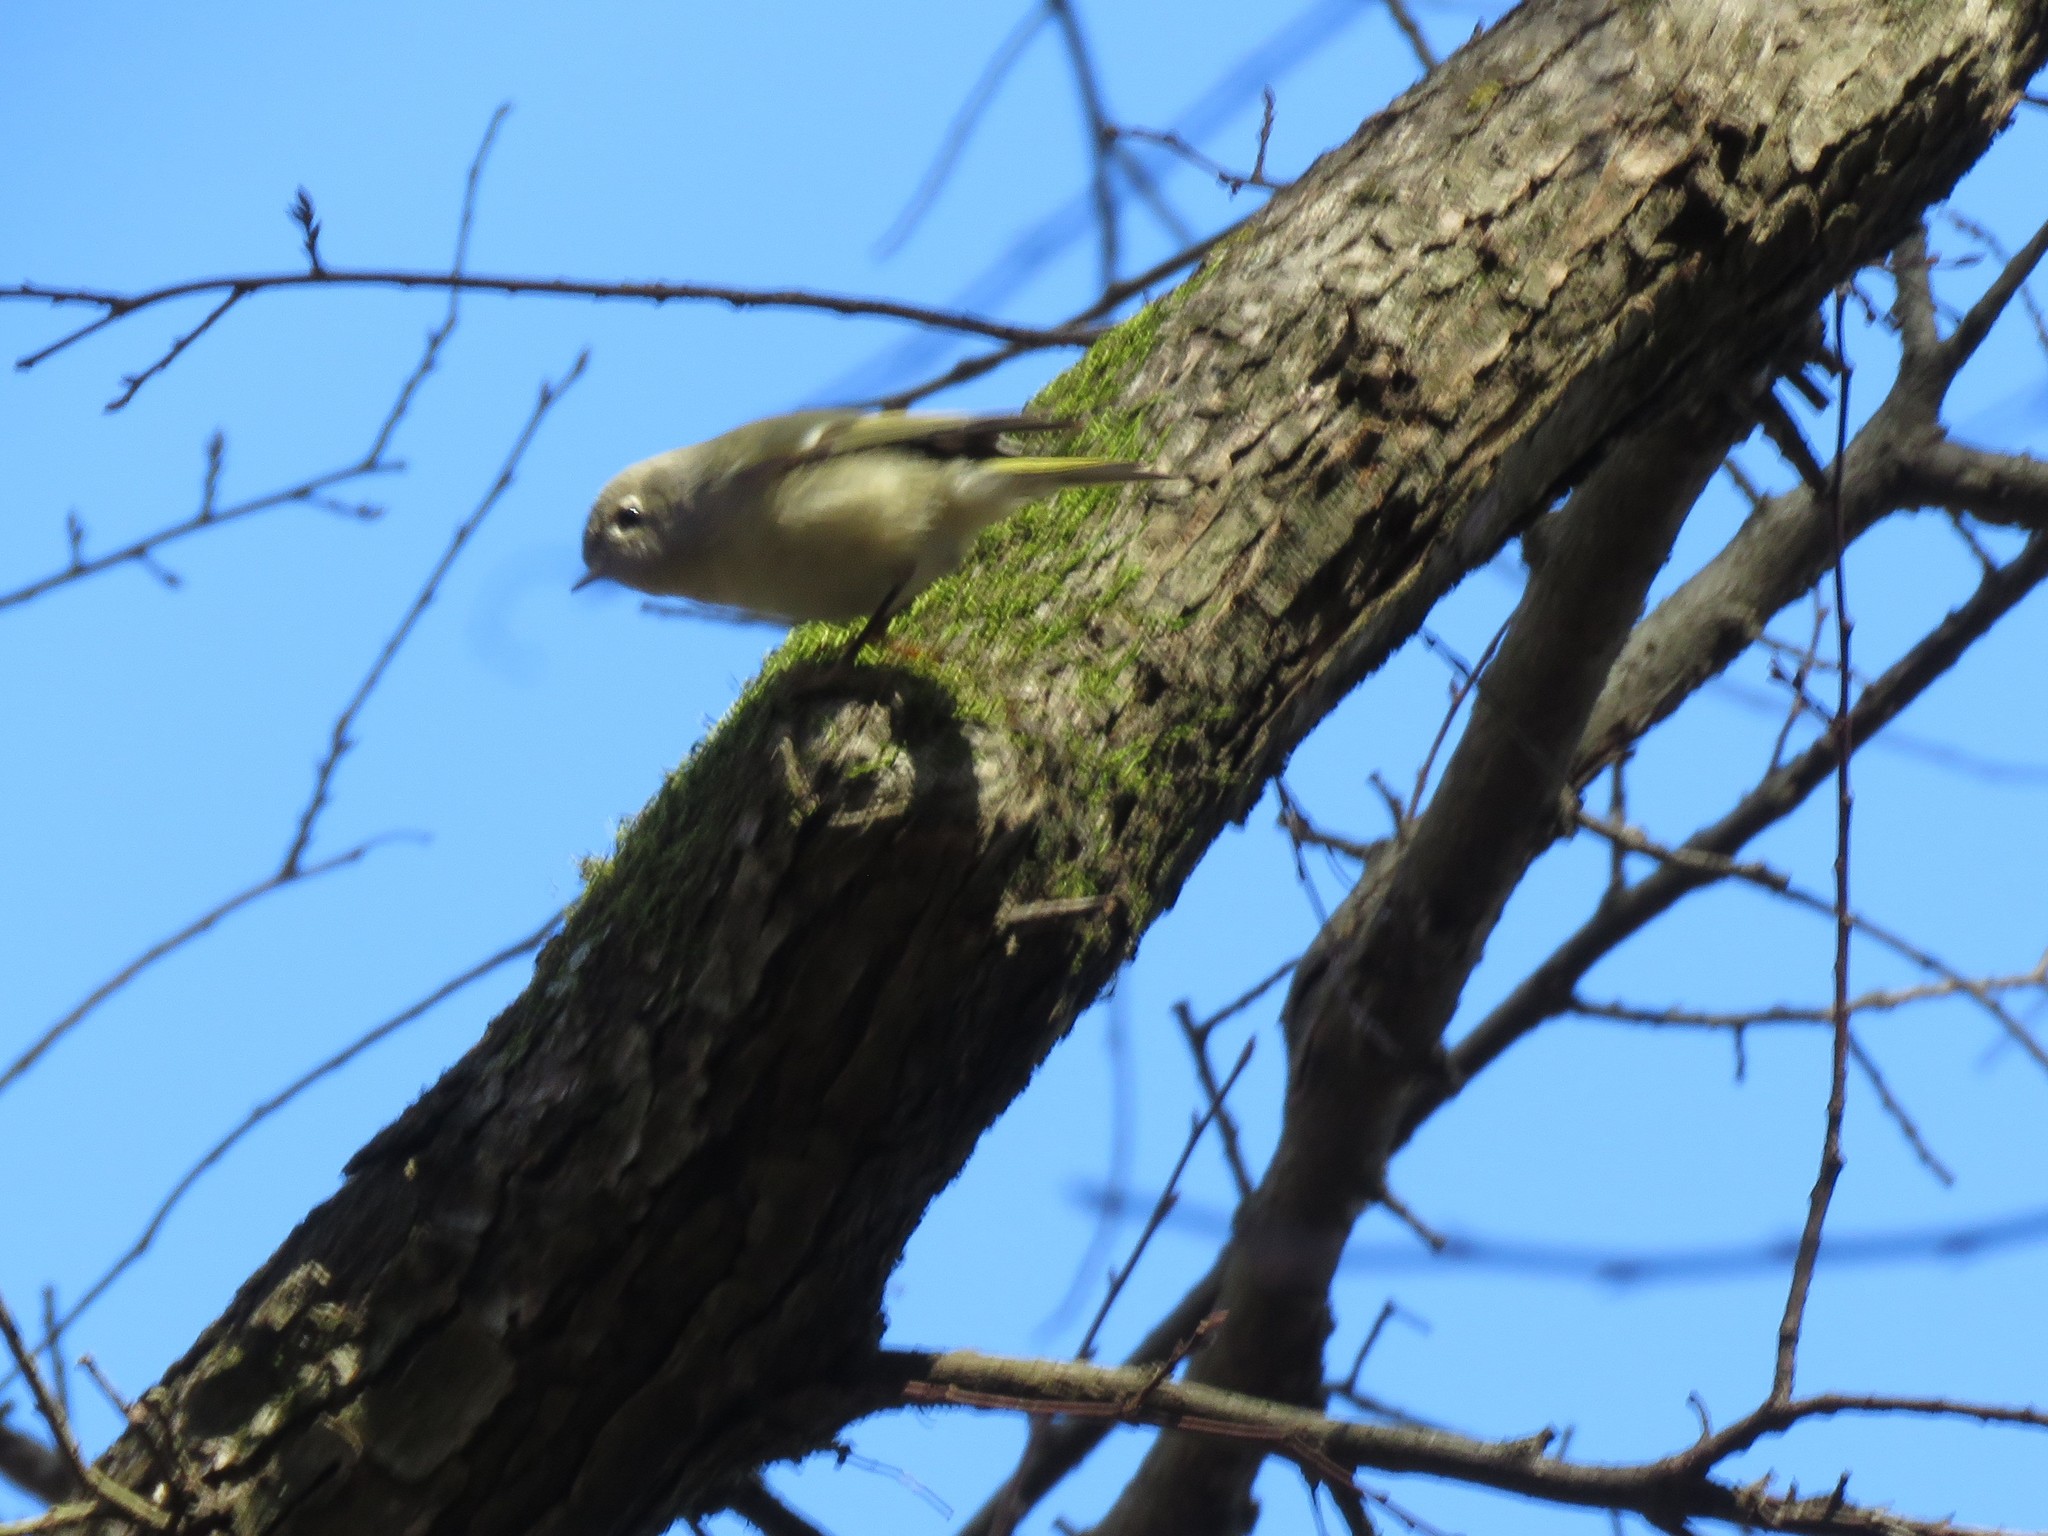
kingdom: Animalia
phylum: Chordata
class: Aves
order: Passeriformes
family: Regulidae
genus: Regulus
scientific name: Regulus calendula
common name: Ruby-crowned kinglet
